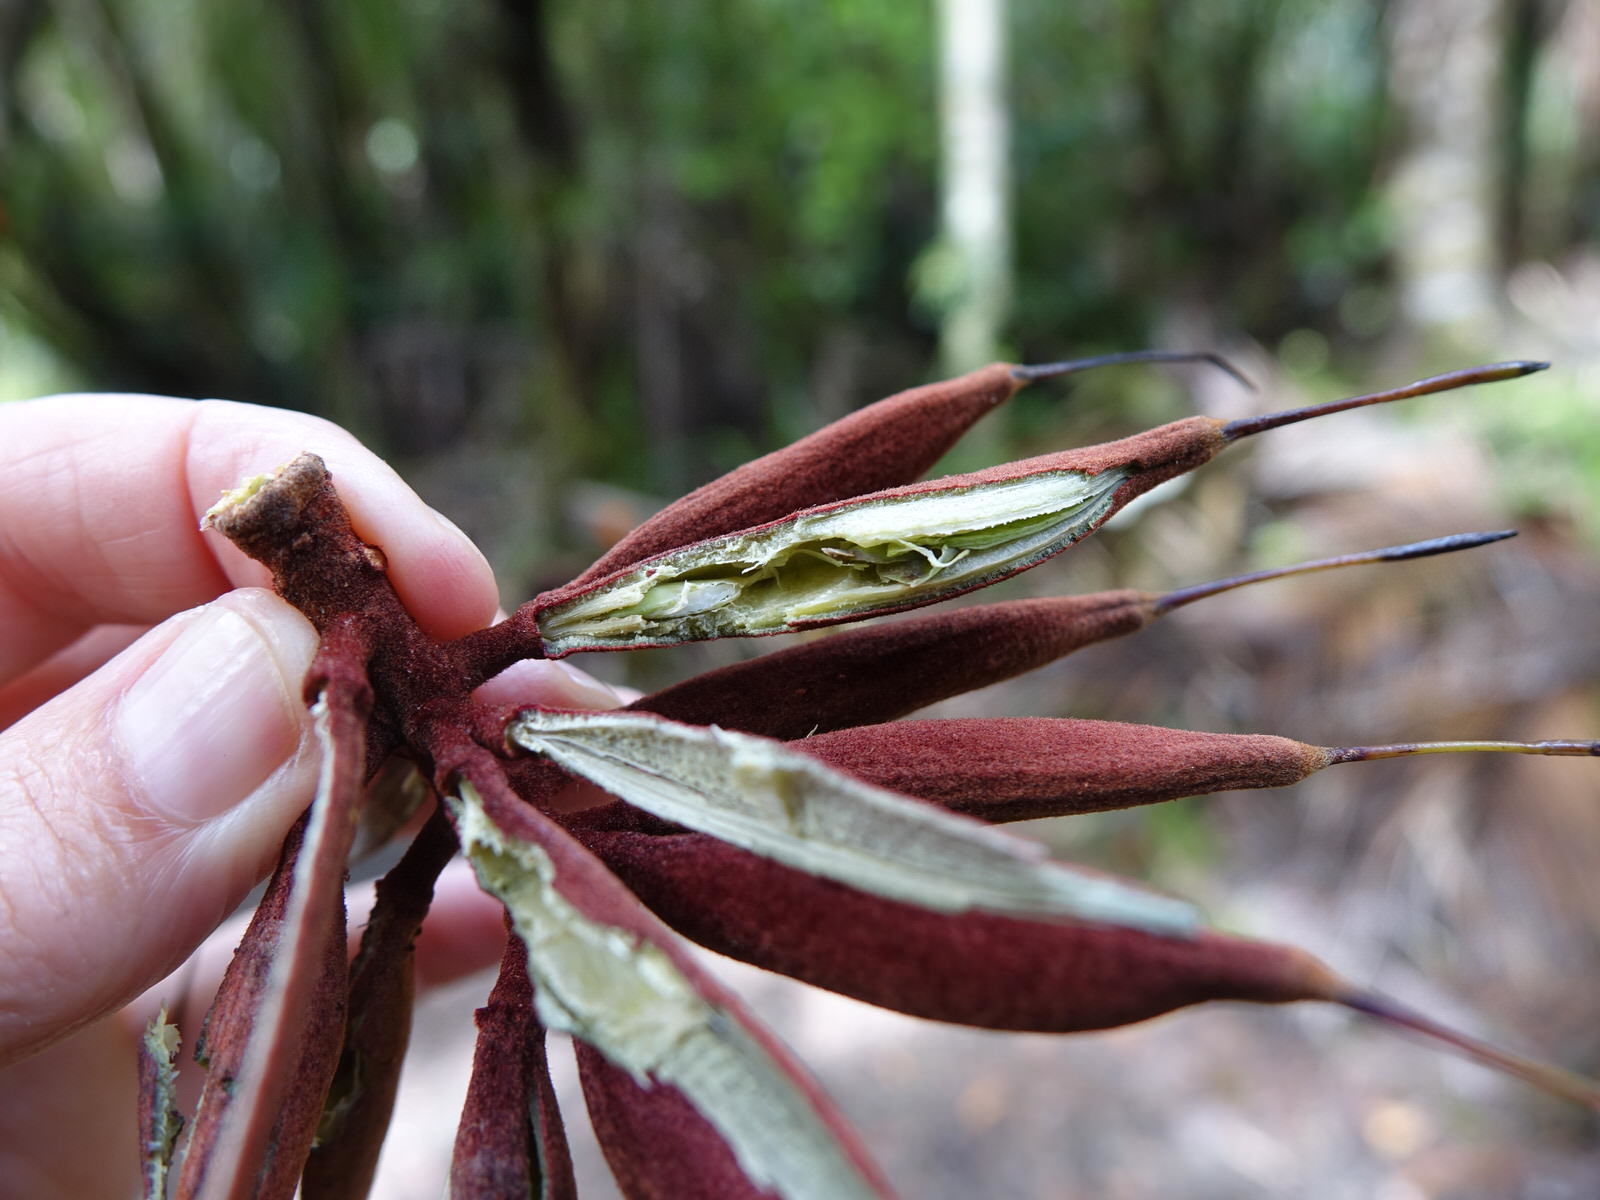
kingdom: Plantae
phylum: Tracheophyta
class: Magnoliopsida
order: Proteales
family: Proteaceae
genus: Knightia
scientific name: Knightia excelsa
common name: New zealand-honeysuckle
